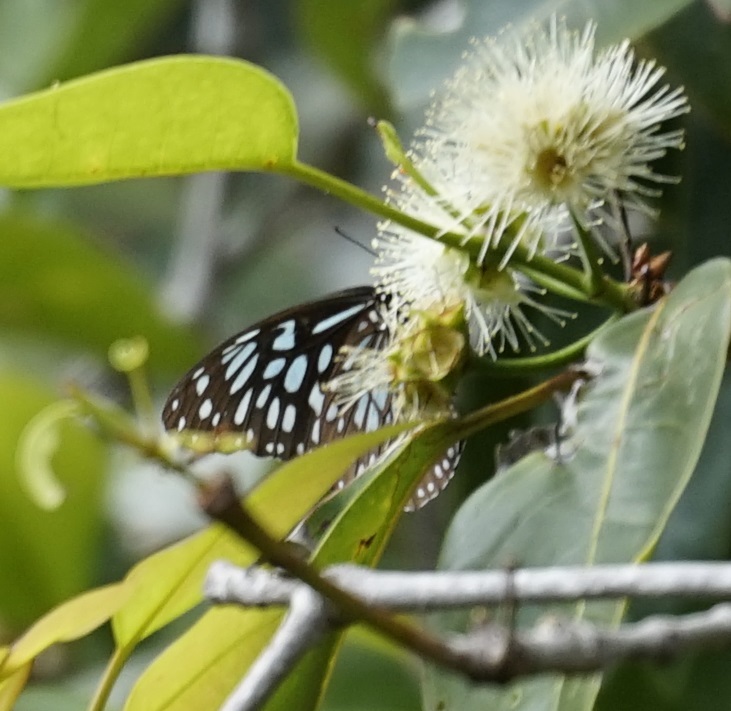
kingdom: Animalia
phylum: Arthropoda
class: Insecta
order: Lepidoptera
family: Nymphalidae
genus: Tirumala
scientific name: Tirumala hamata
